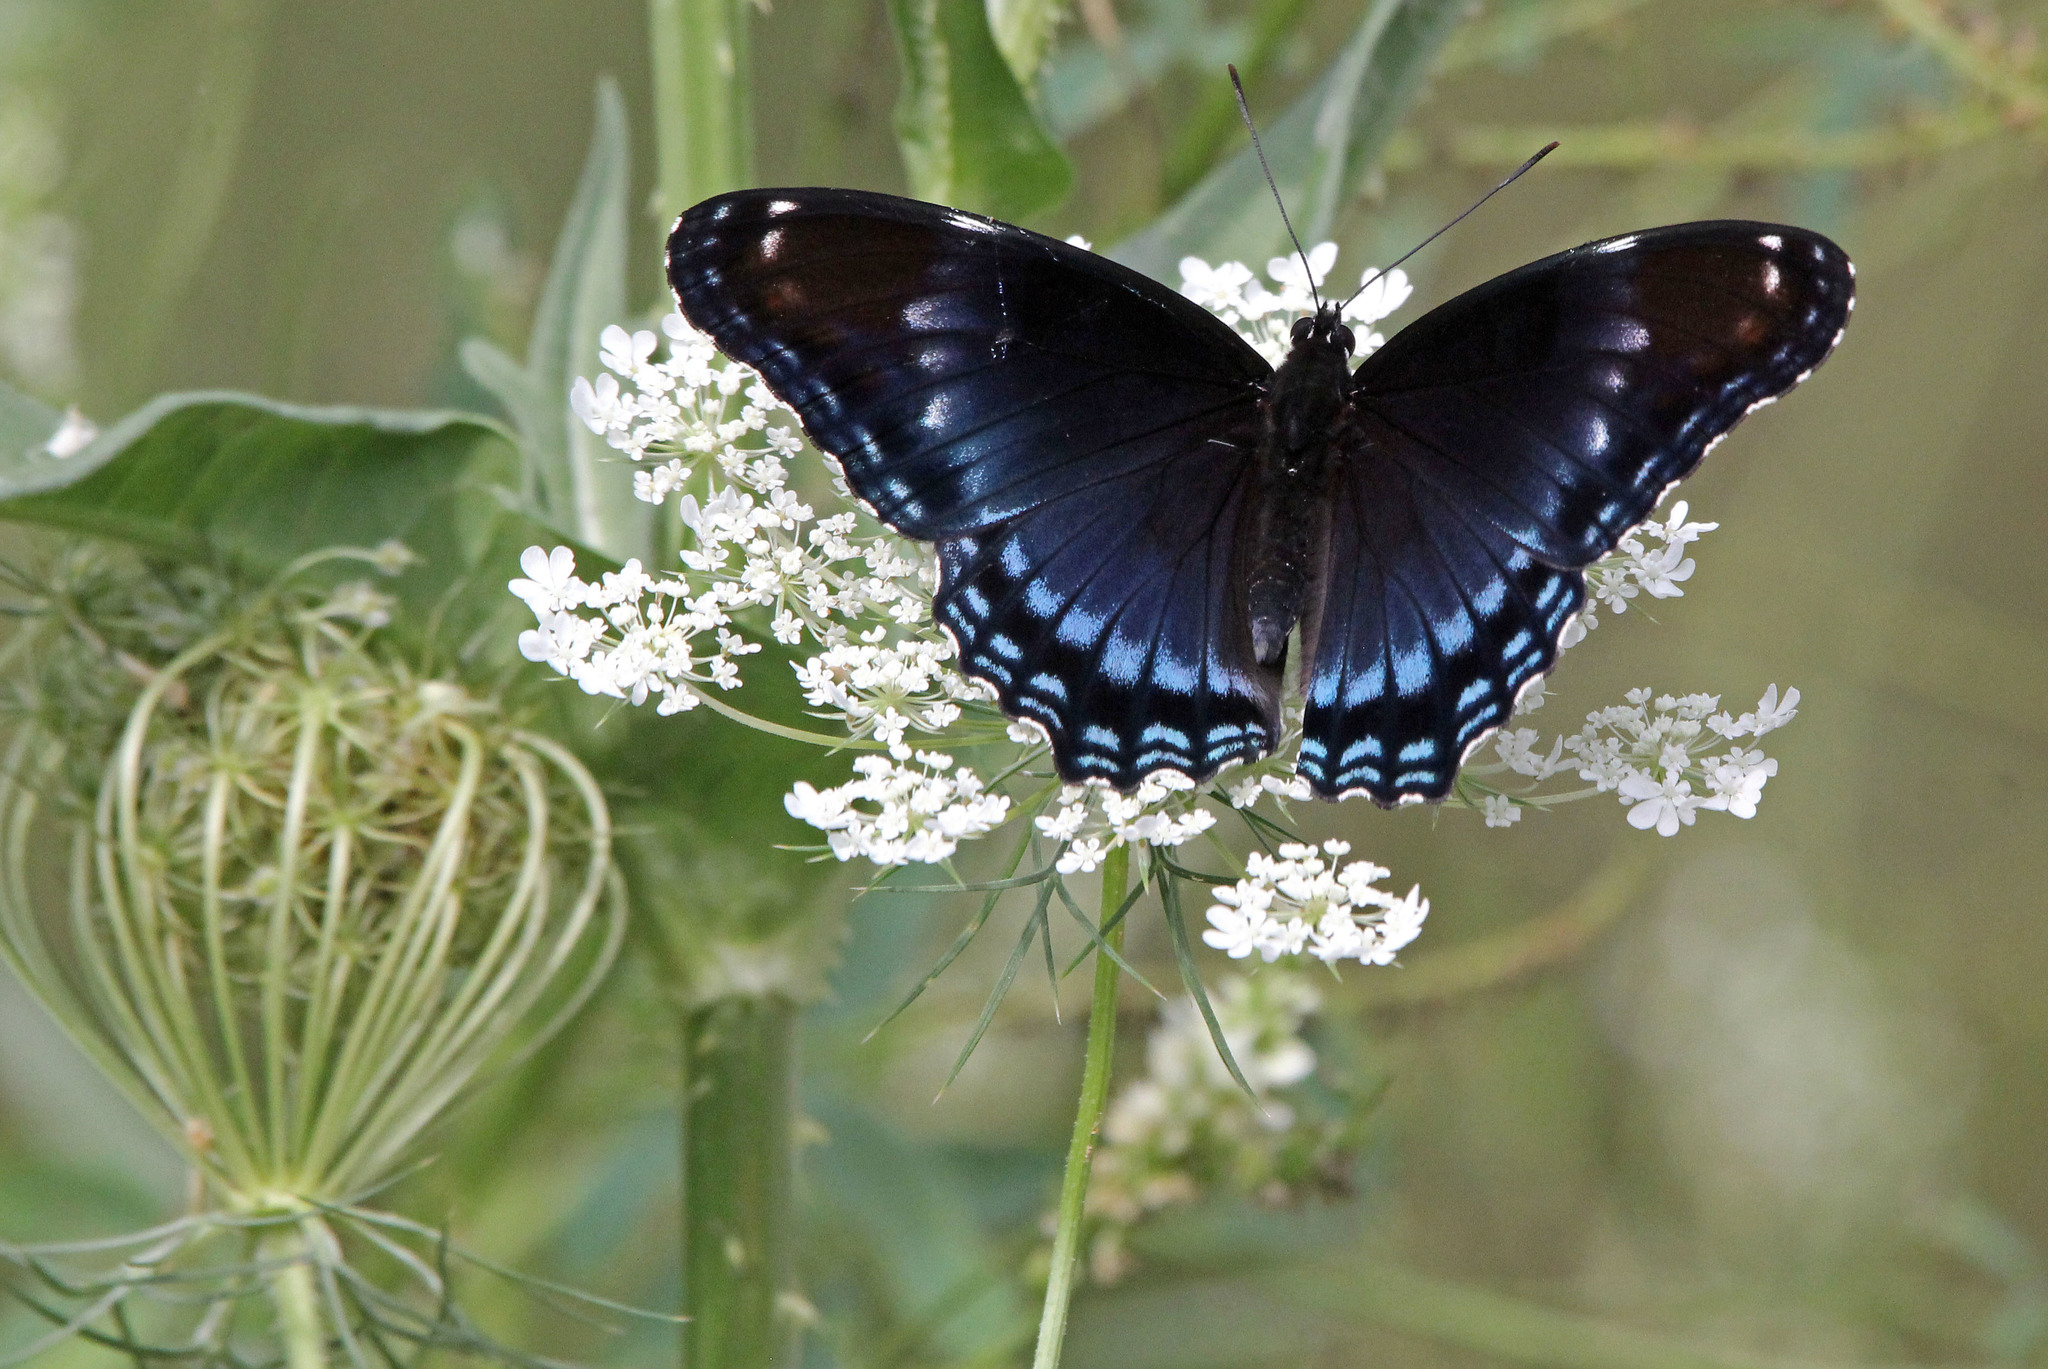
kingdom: Animalia
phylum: Arthropoda
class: Insecta
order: Lepidoptera
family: Nymphalidae
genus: Limenitis
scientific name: Limenitis arthemis
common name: Red-spotted admiral
